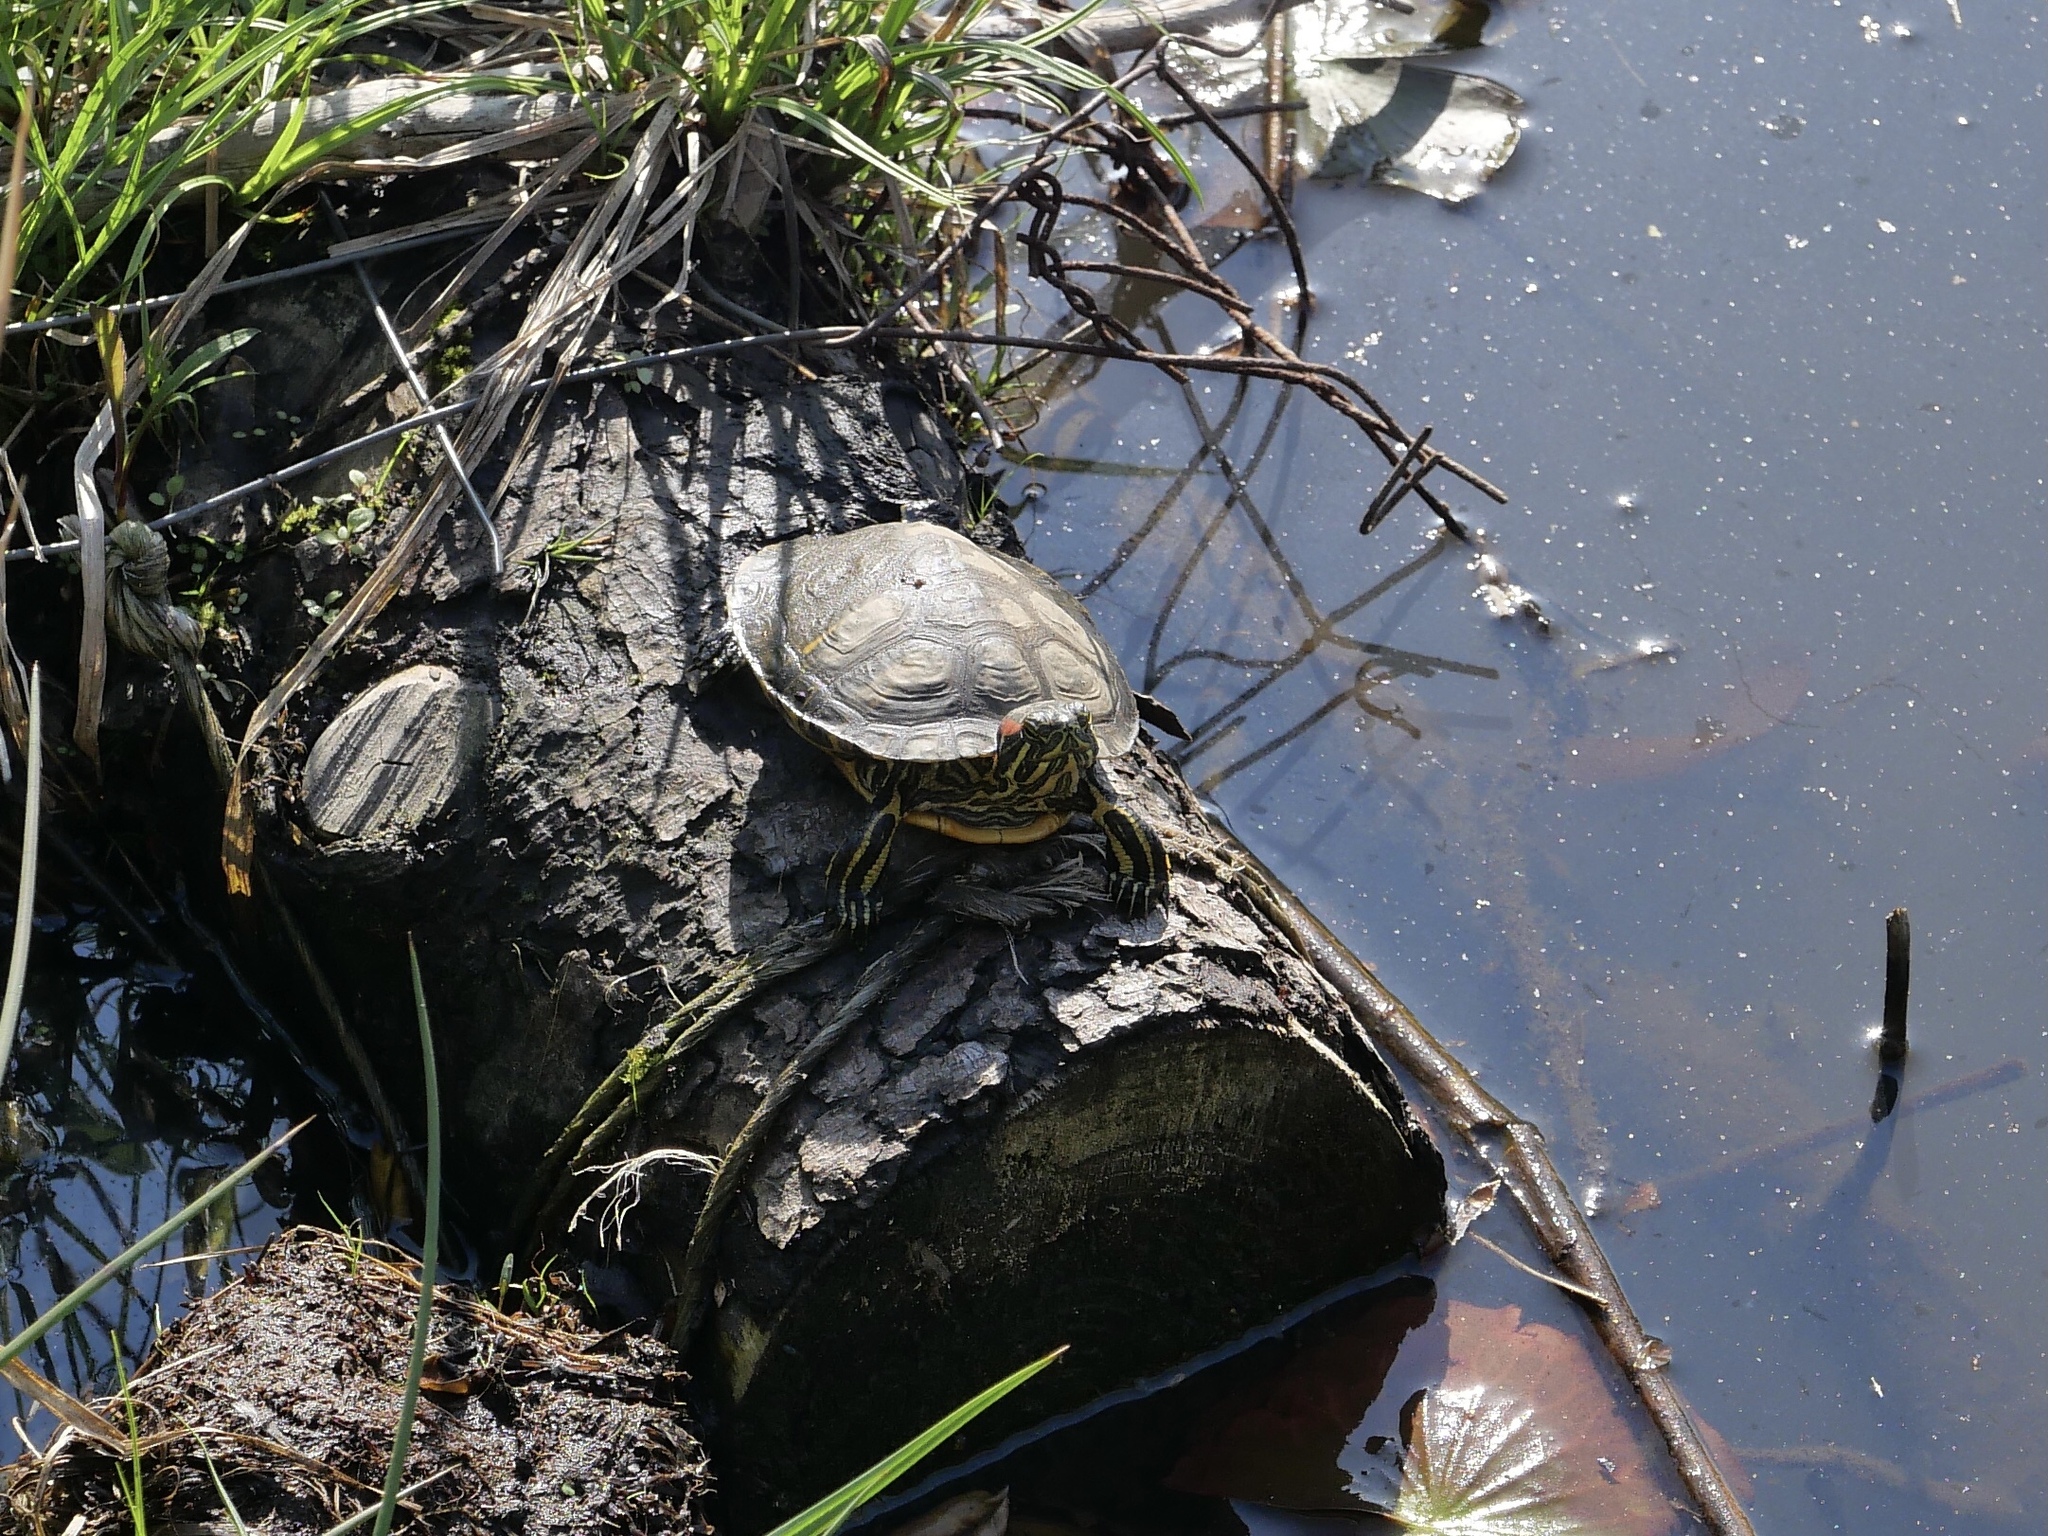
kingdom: Animalia
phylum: Chordata
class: Testudines
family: Emydidae
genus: Trachemys
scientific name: Trachemys scripta
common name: Slider
